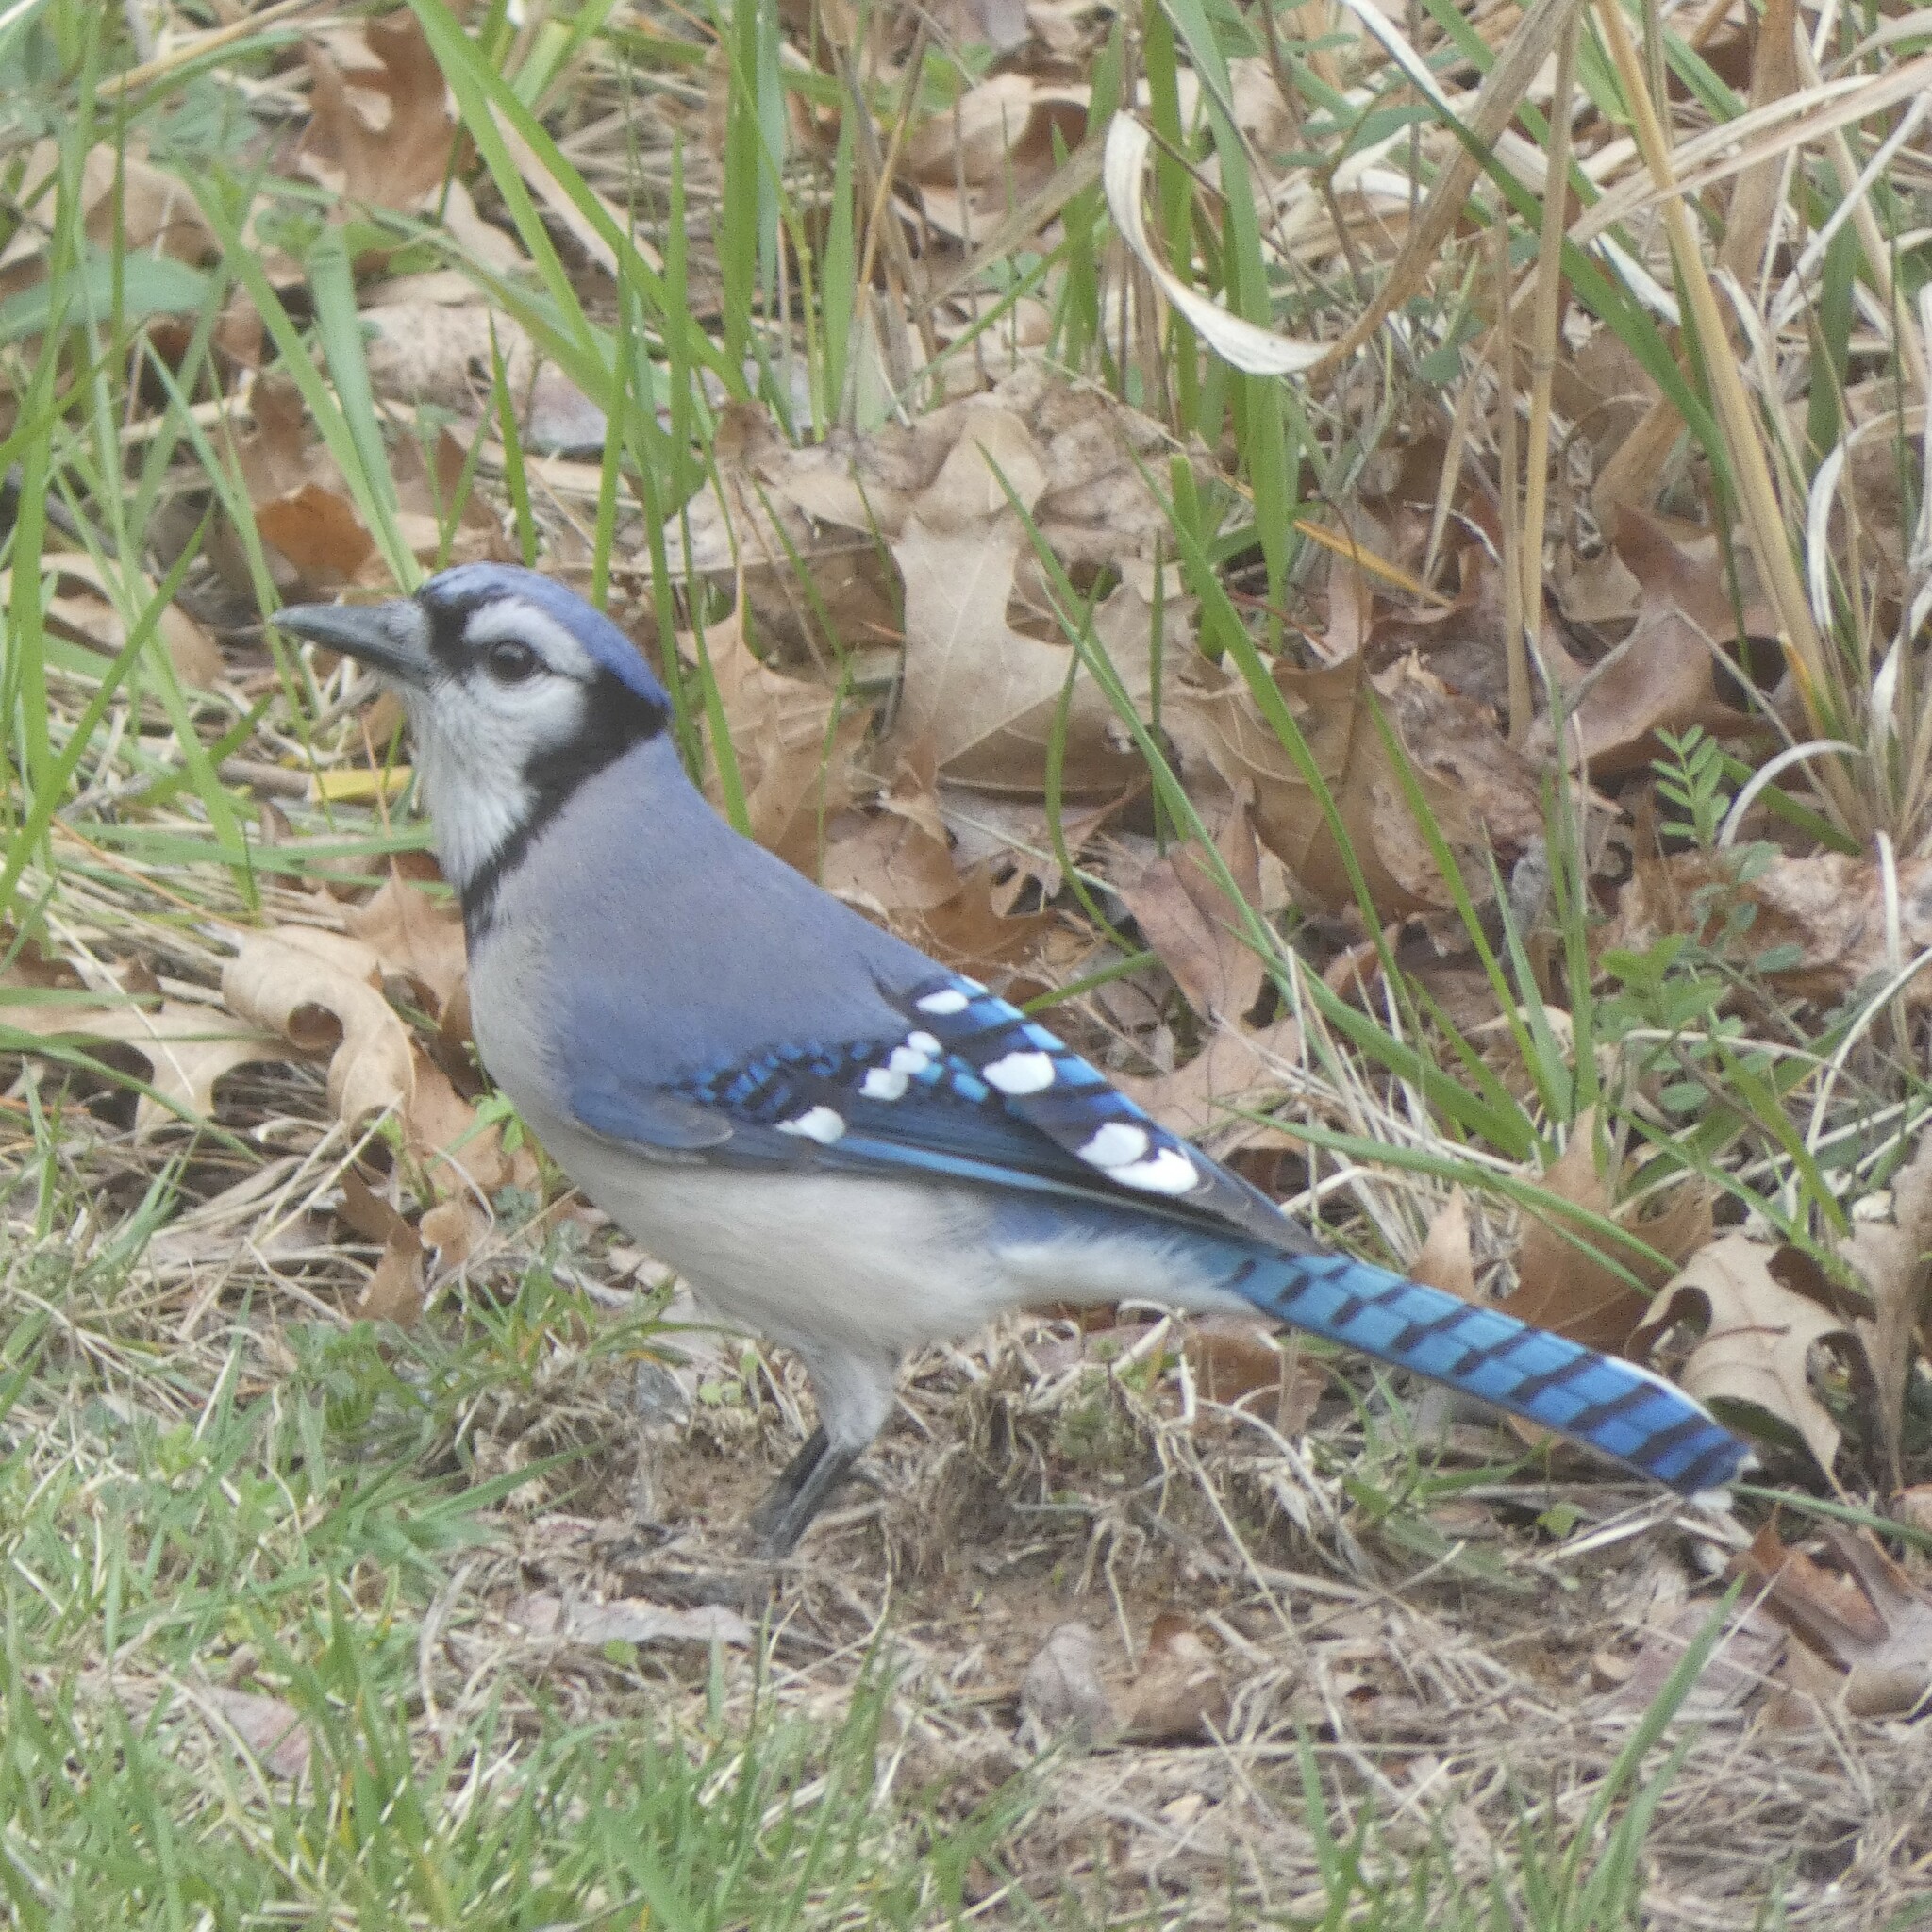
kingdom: Animalia
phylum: Chordata
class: Aves
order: Passeriformes
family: Corvidae
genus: Cyanocitta
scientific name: Cyanocitta cristata
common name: Blue jay
